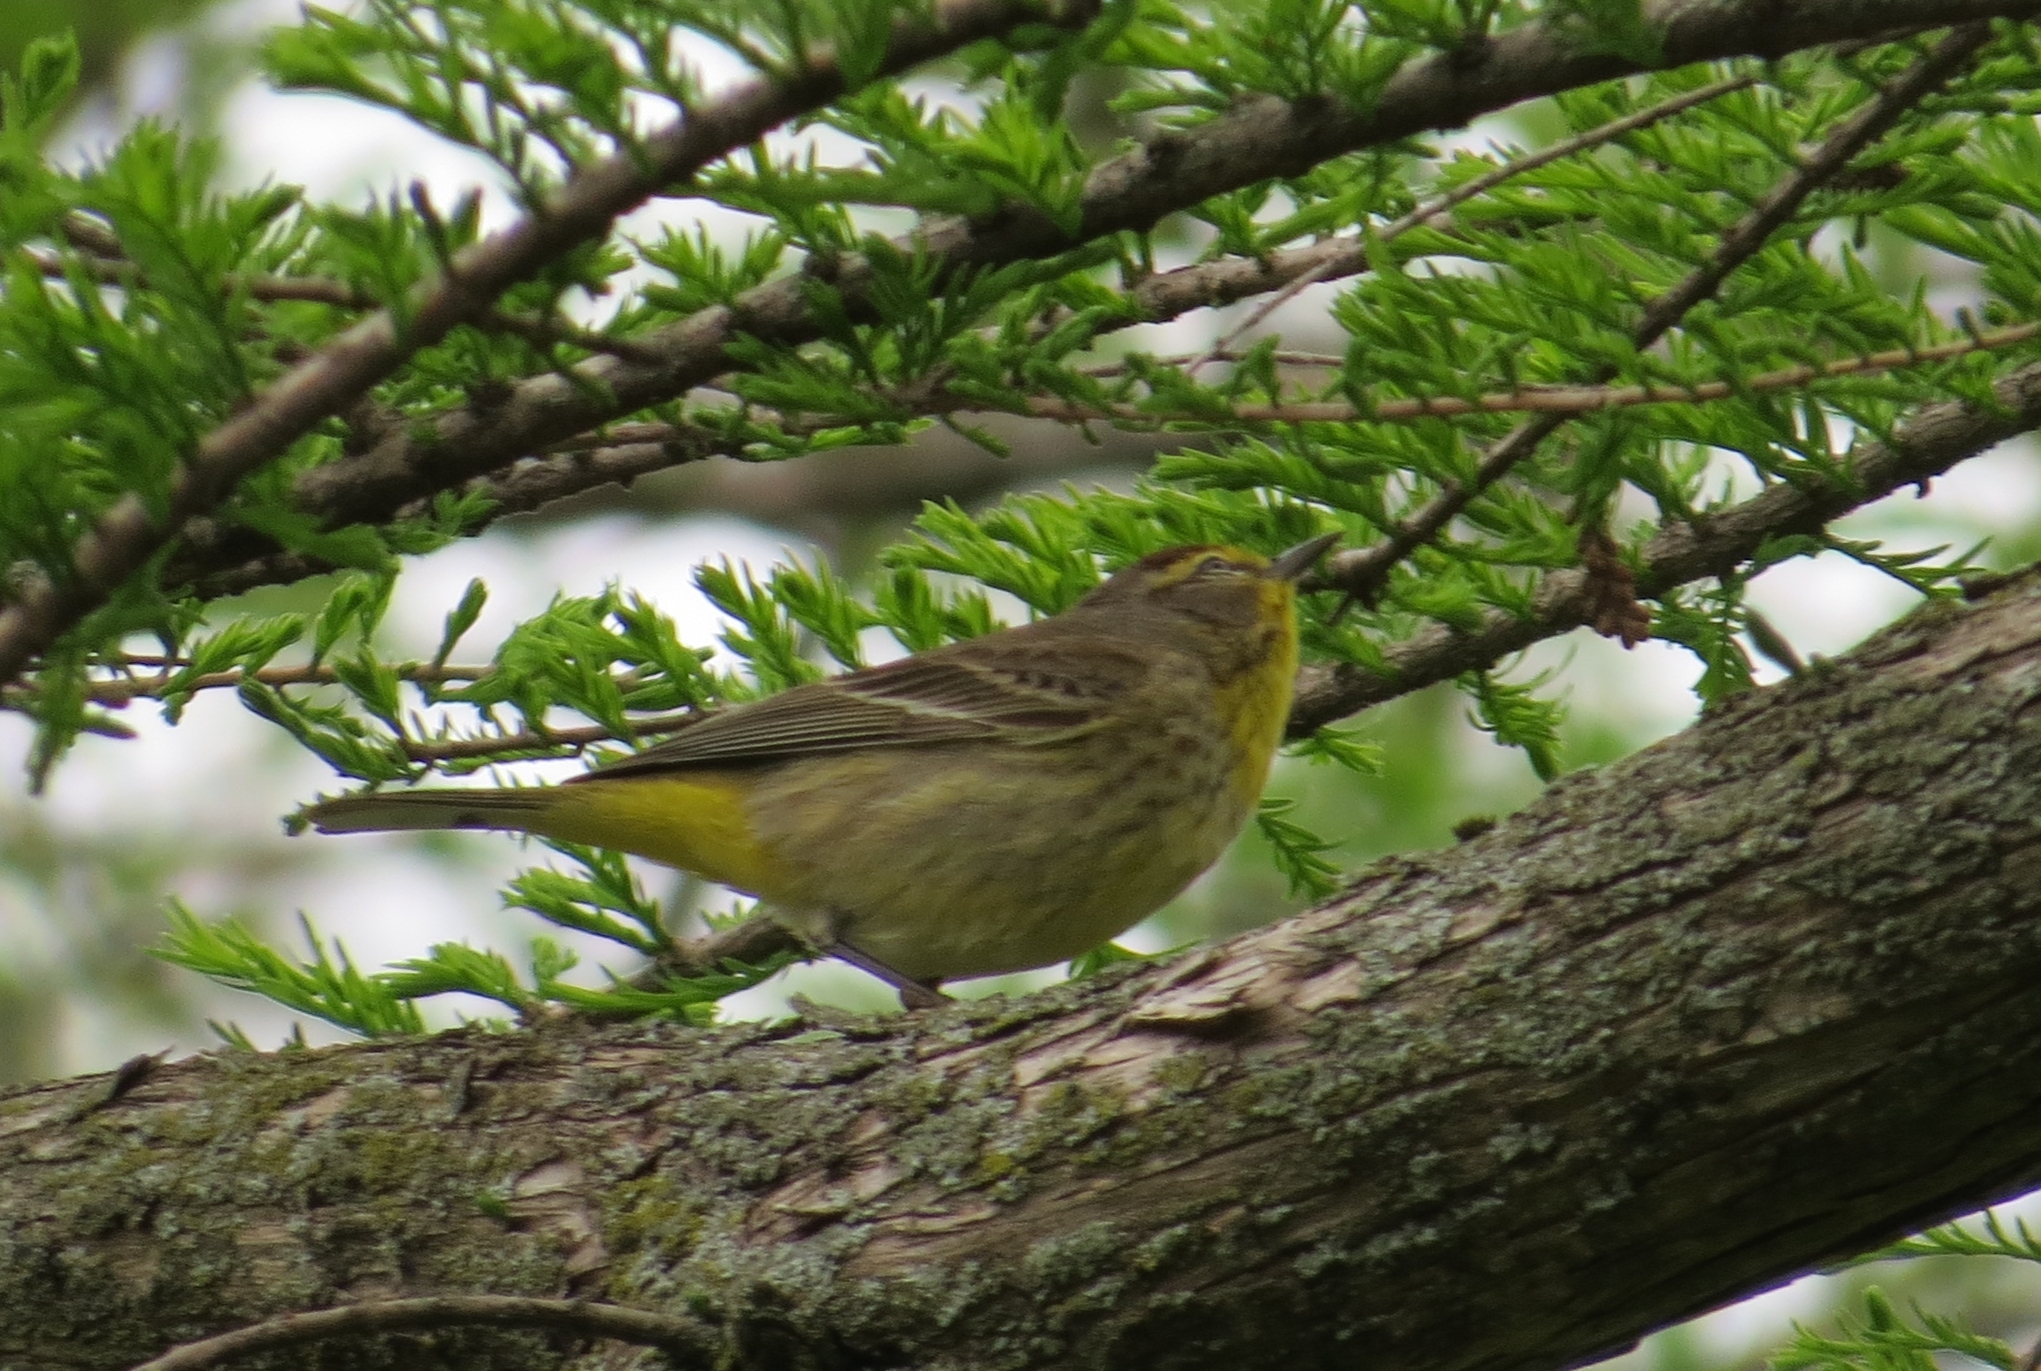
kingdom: Animalia
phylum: Chordata
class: Aves
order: Passeriformes
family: Parulidae
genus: Setophaga
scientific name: Setophaga palmarum
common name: Palm warbler
